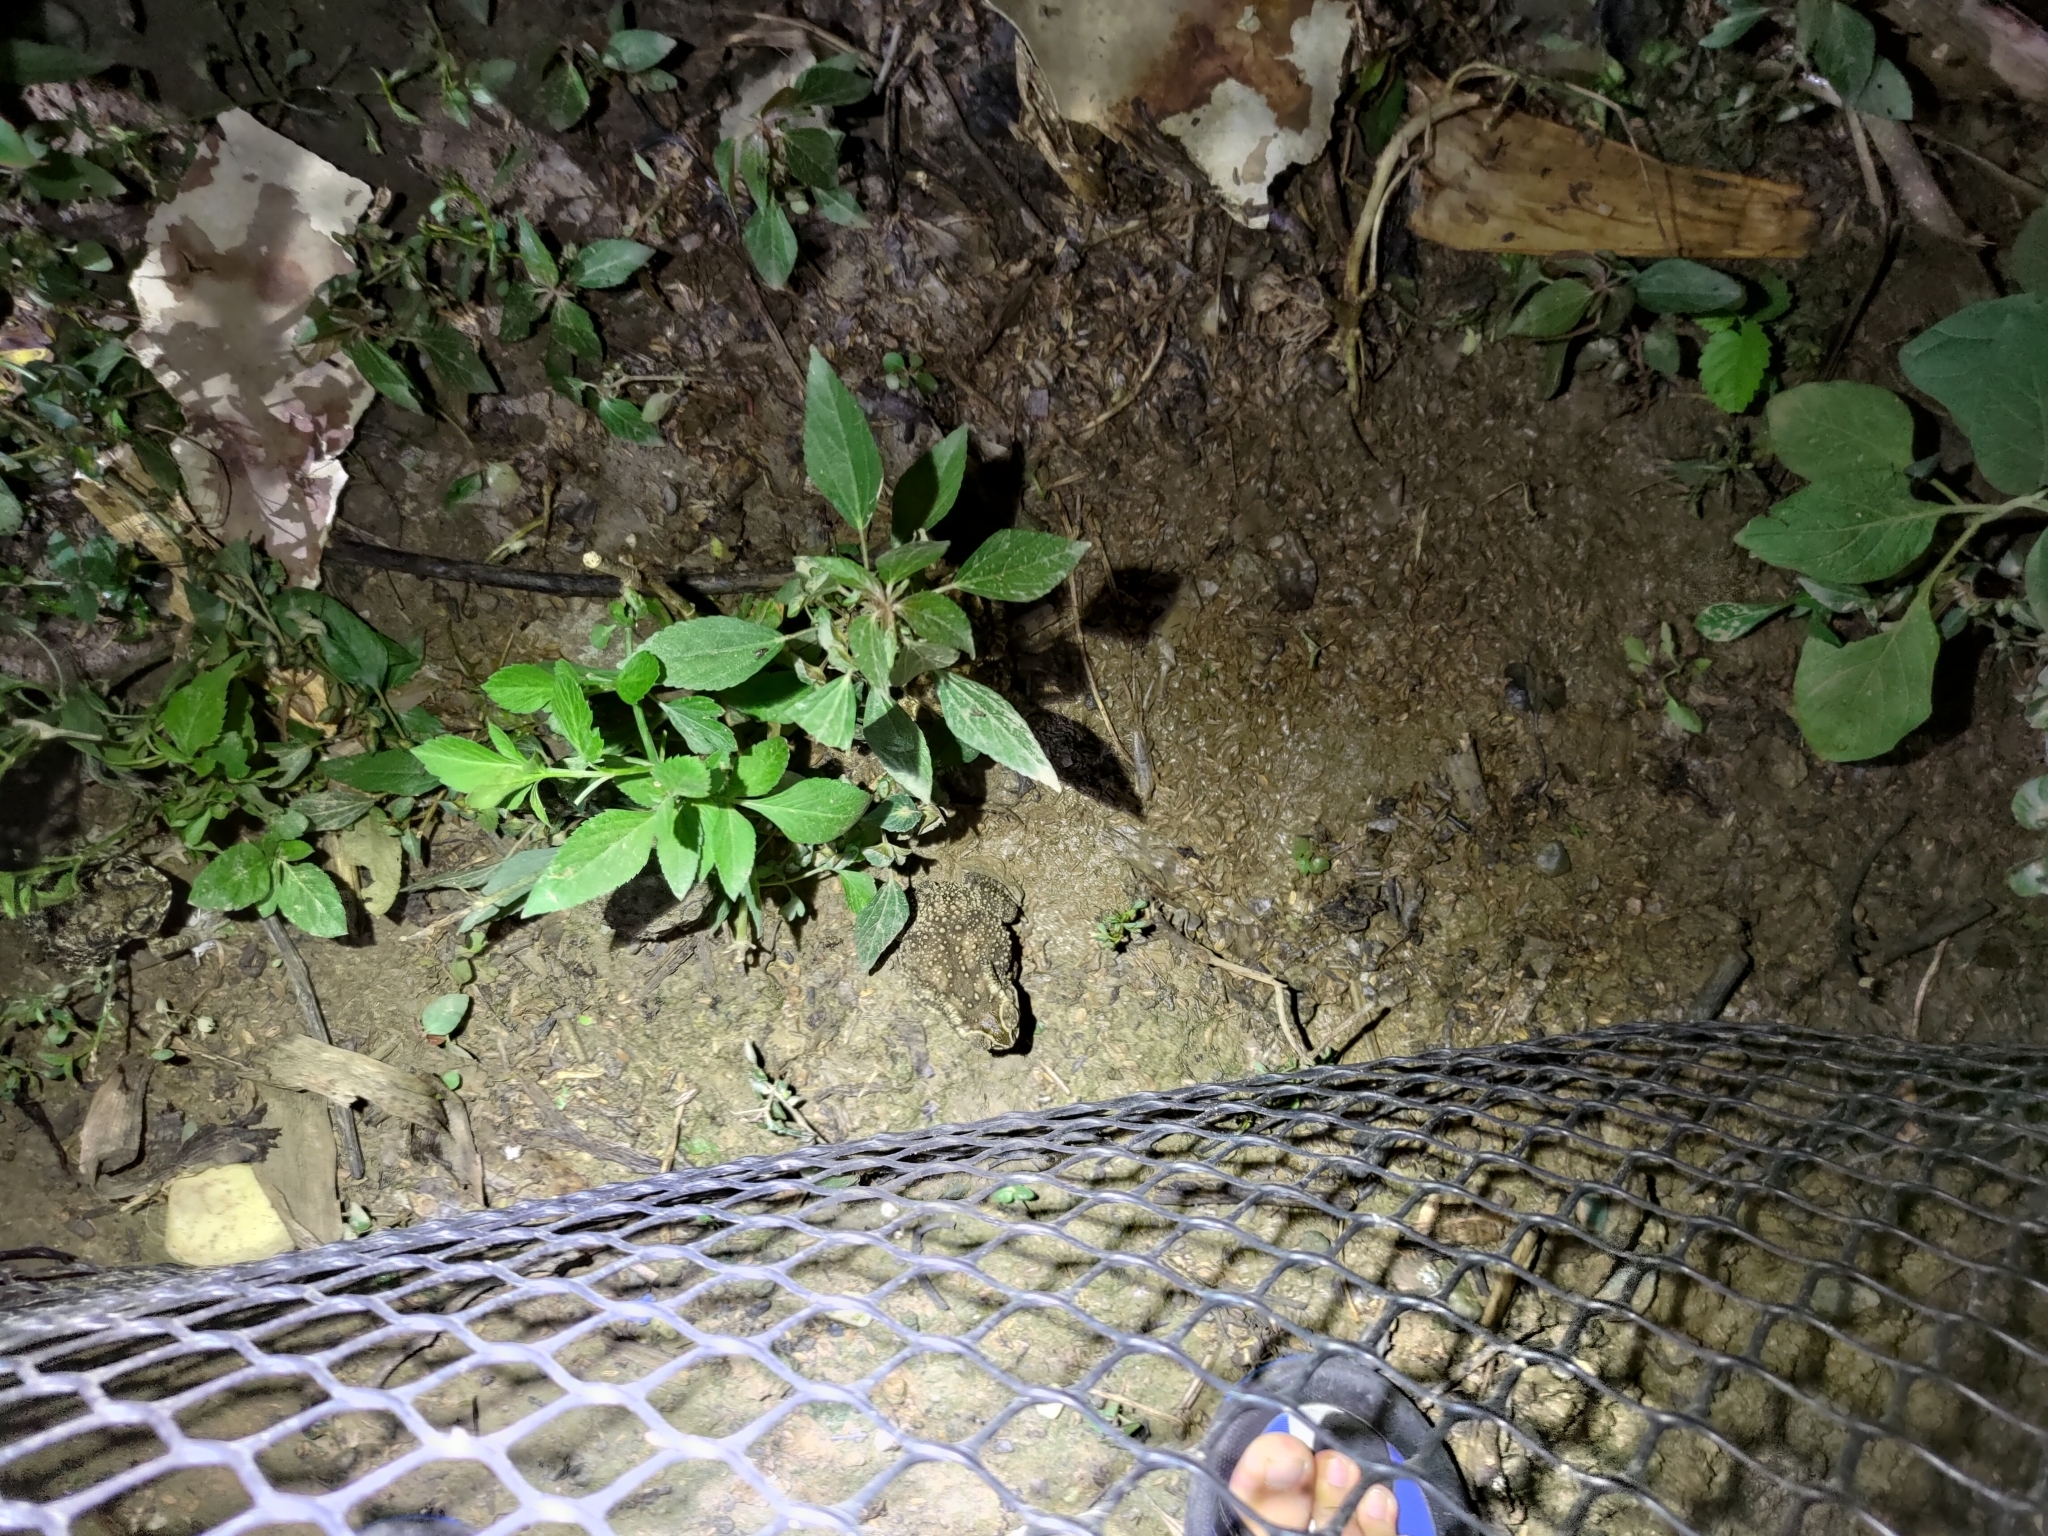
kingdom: Animalia
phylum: Chordata
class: Amphibia
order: Anura
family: Bufonidae
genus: Duttaphrynus
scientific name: Duttaphrynus melanostictus
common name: Common sunda toad
